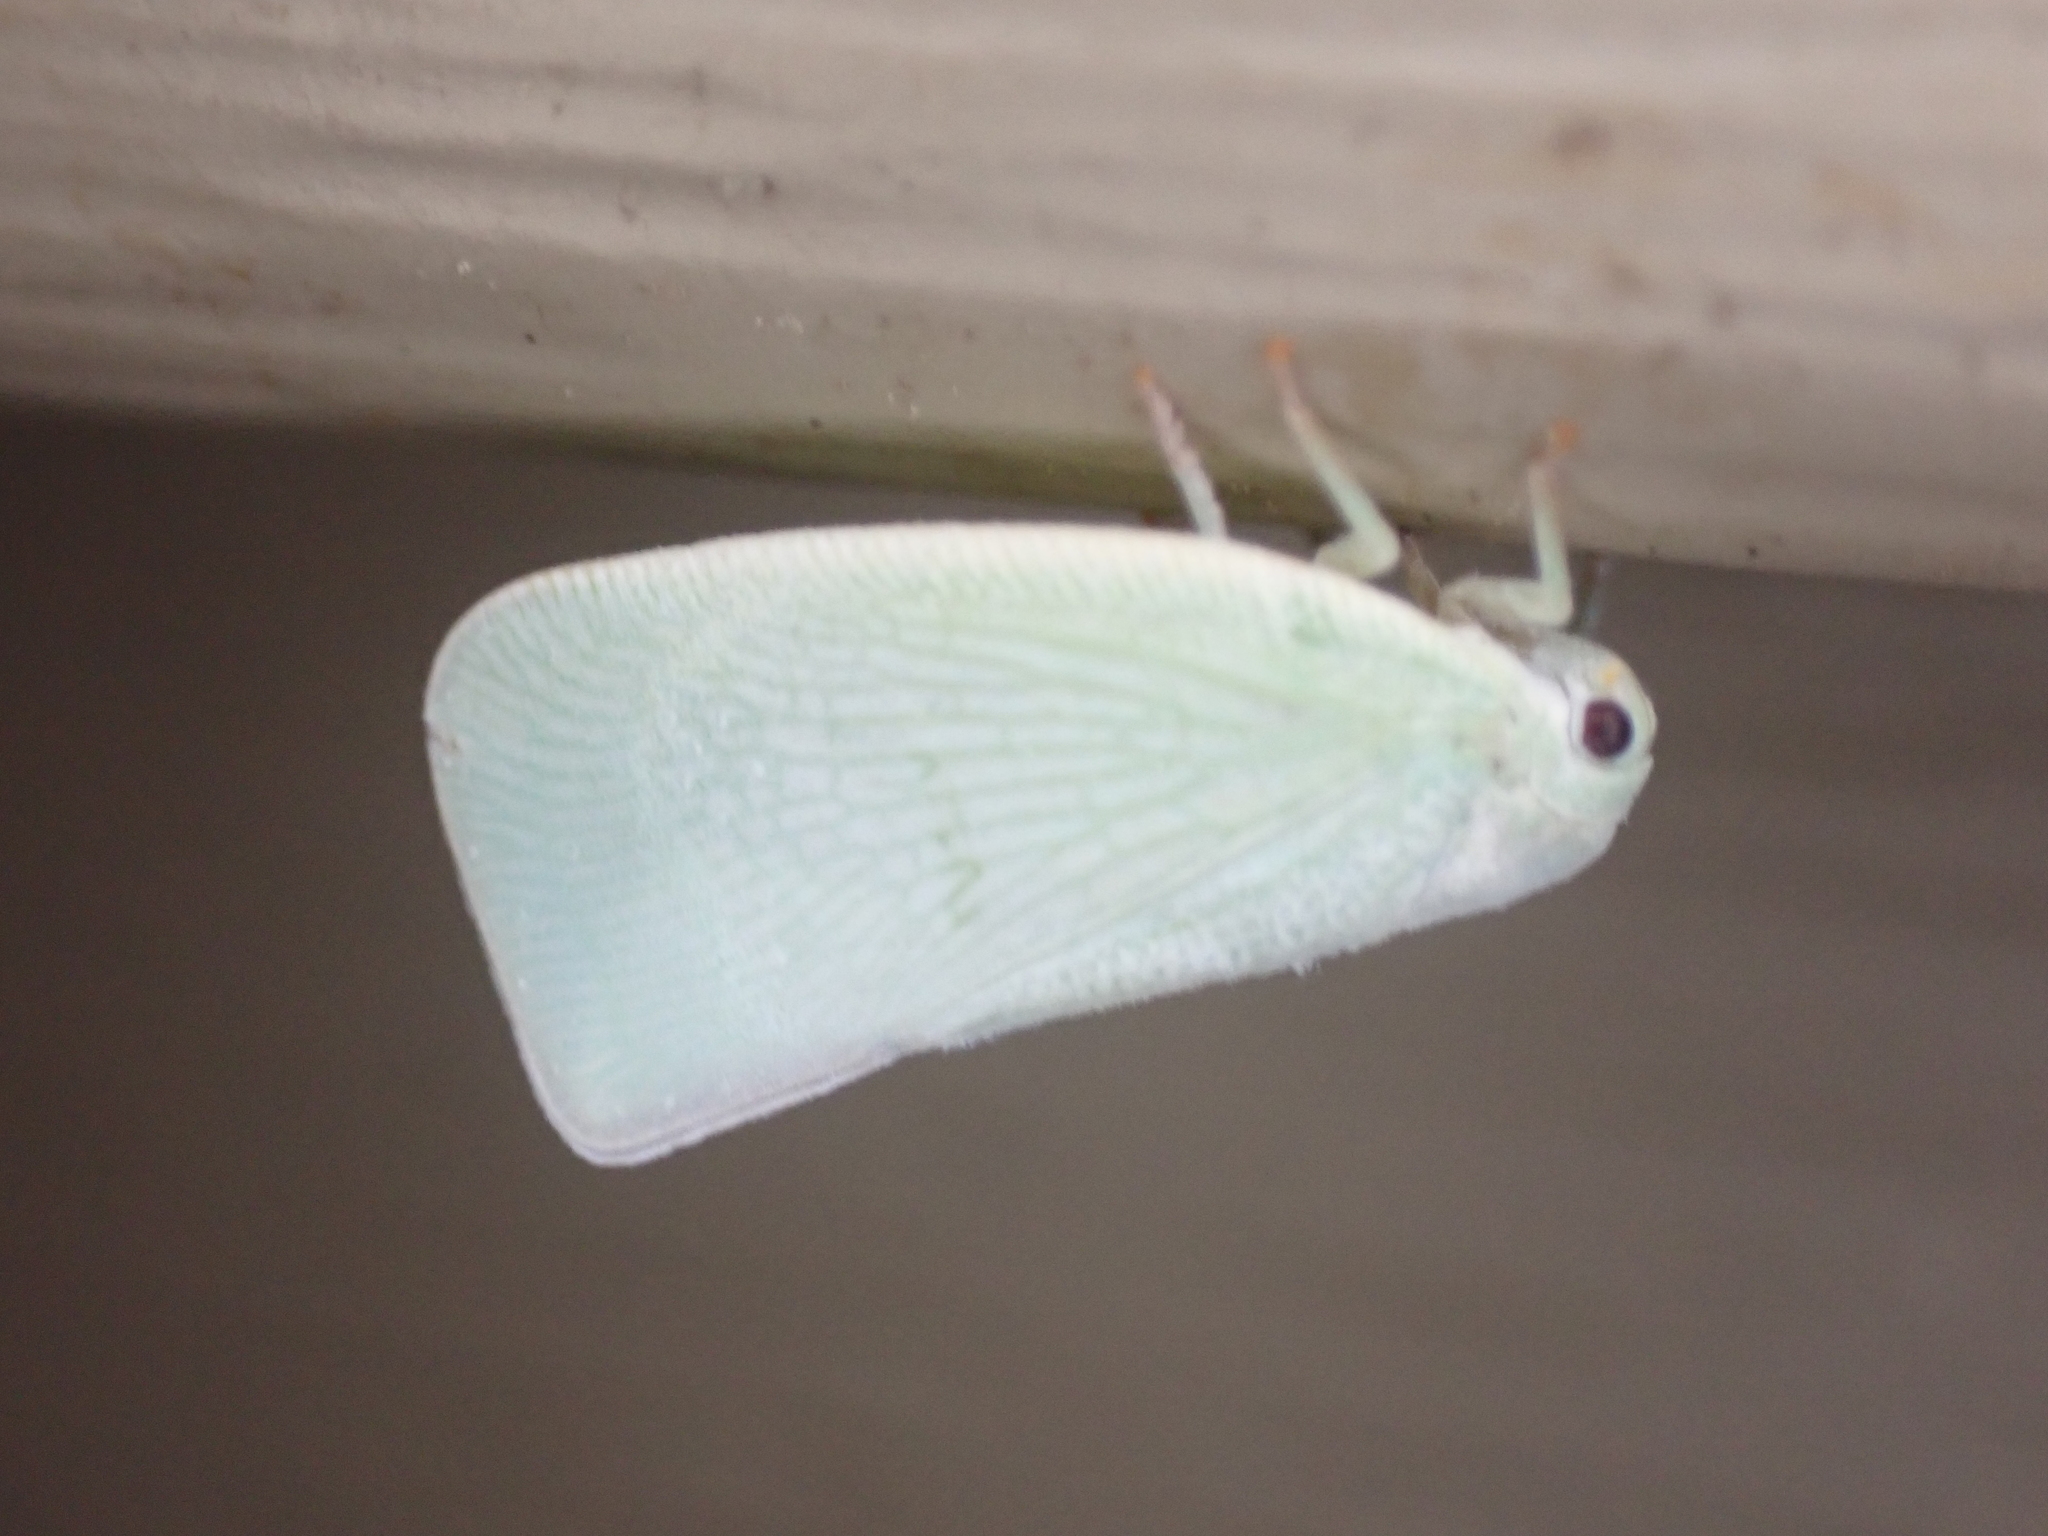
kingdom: Animalia
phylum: Arthropoda
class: Insecta
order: Hemiptera
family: Flatidae
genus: Flatormenis
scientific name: Flatormenis proxima
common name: Northern flatid planthopper
